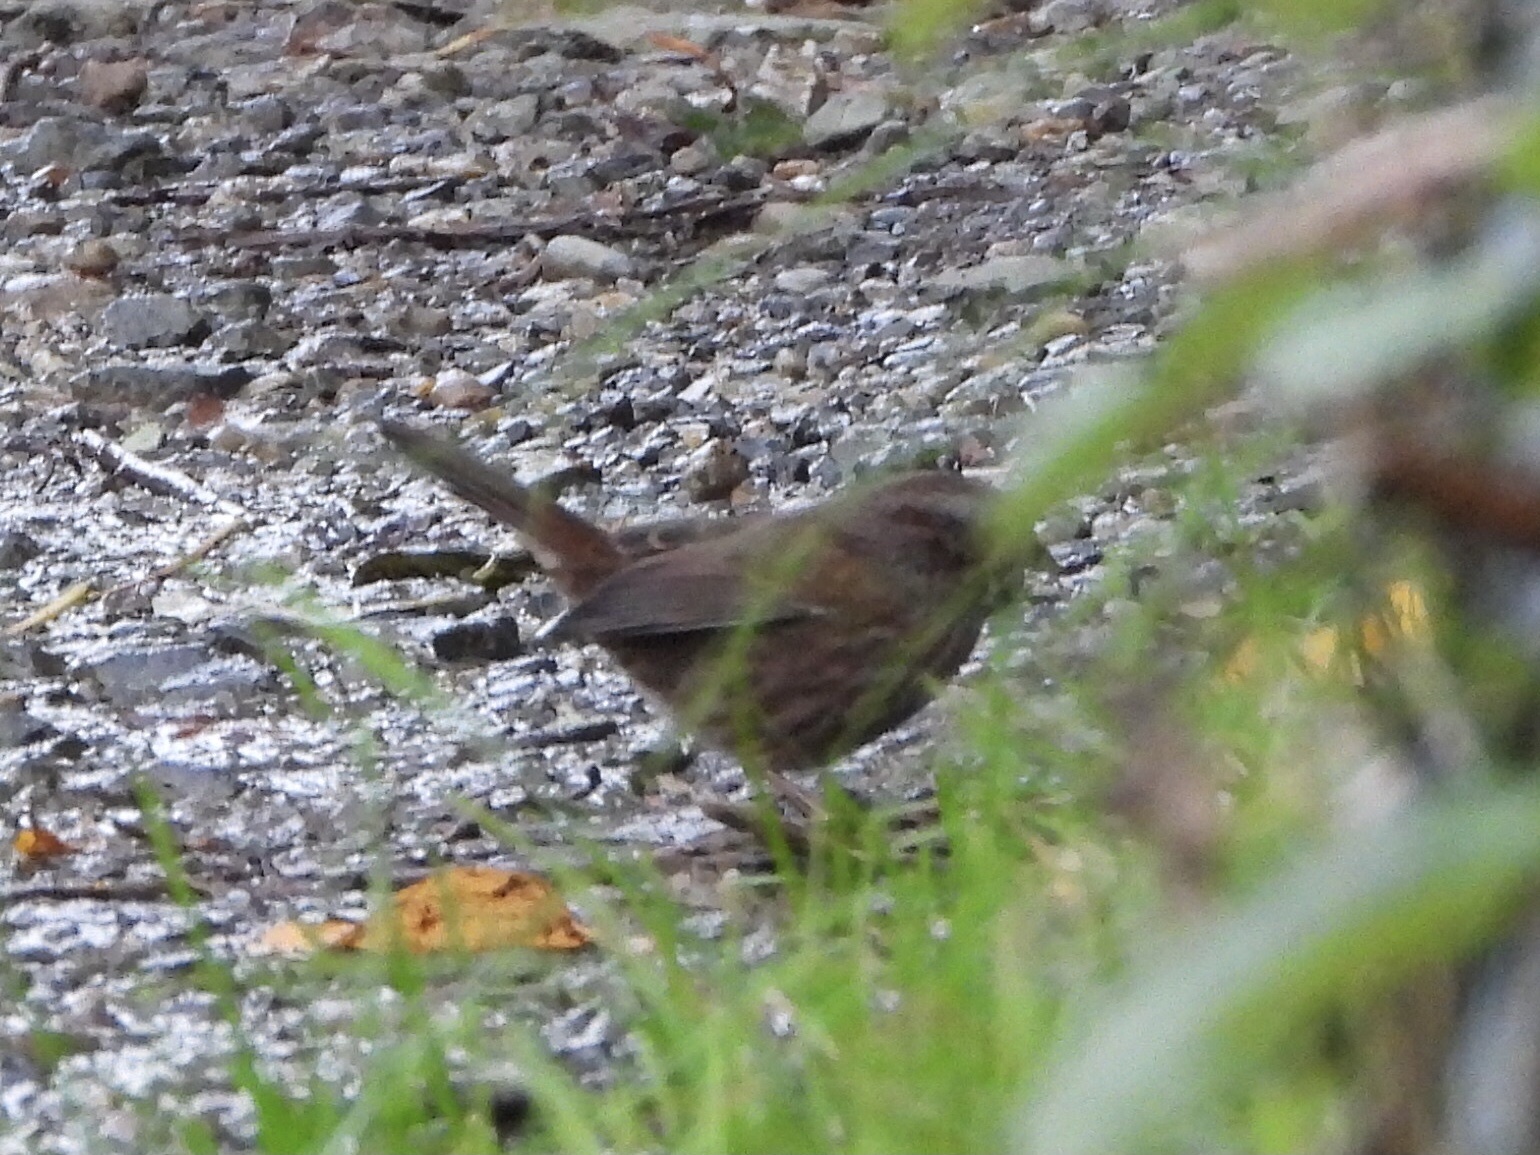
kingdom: Animalia
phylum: Chordata
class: Aves
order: Passeriformes
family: Passerellidae
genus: Melospiza
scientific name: Melospiza melodia
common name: Song sparrow
